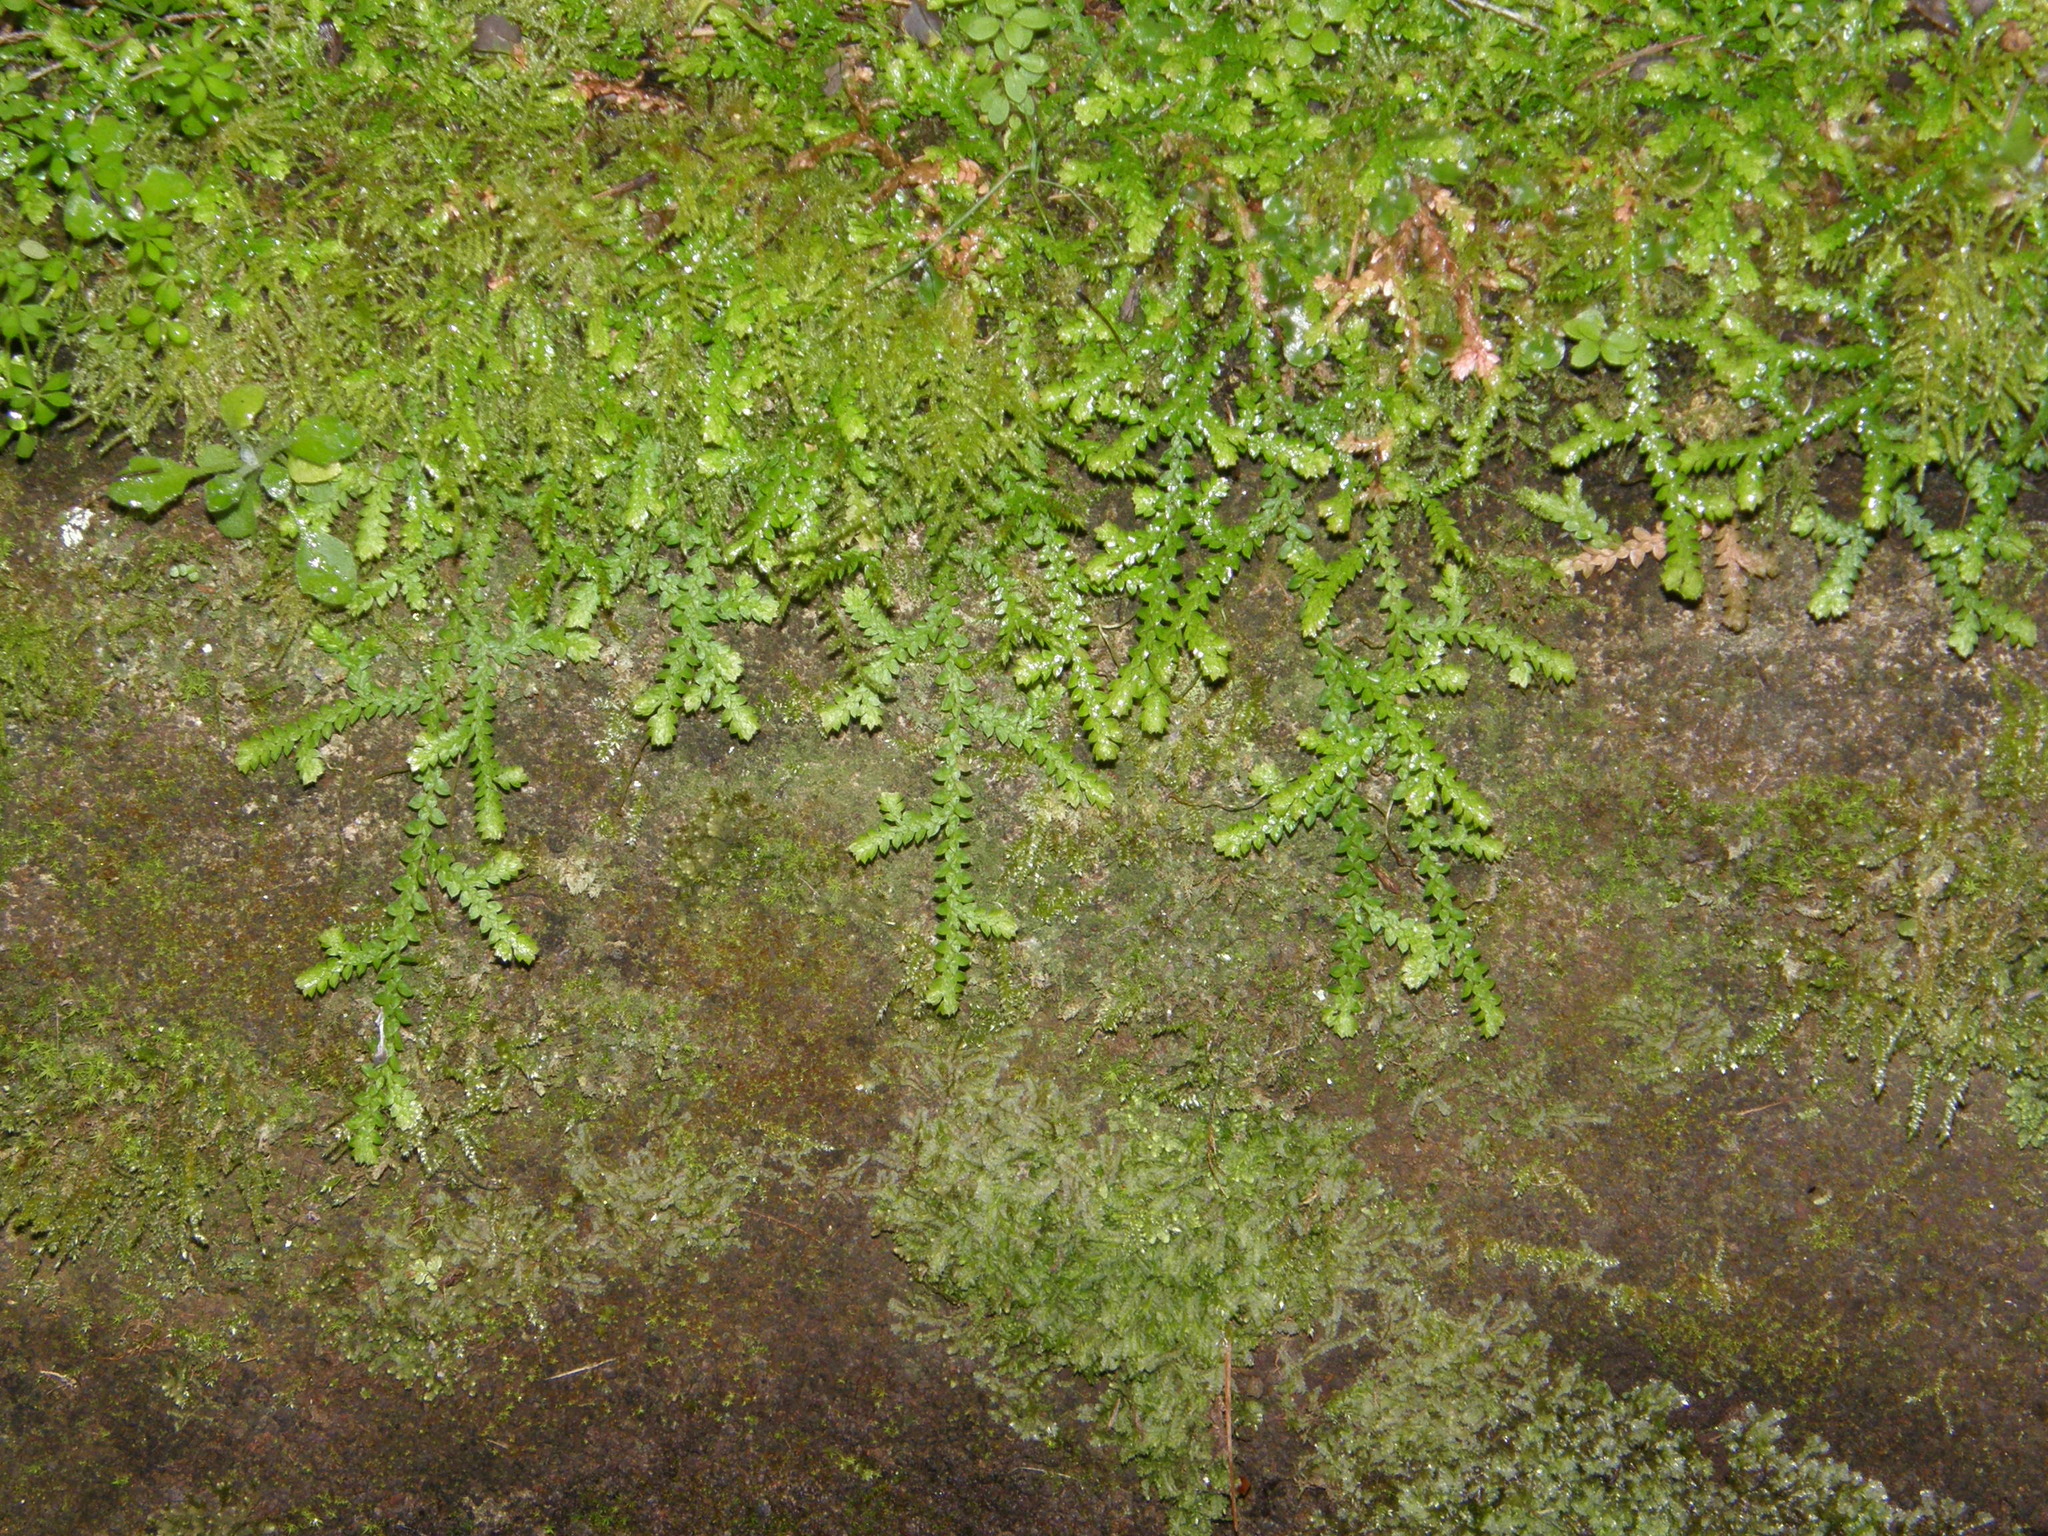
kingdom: Plantae
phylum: Tracheophyta
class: Lycopodiopsida
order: Selaginellales
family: Selaginellaceae
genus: Selaginella
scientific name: Selaginella denticulata
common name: Toothed-leaved clubmoss
